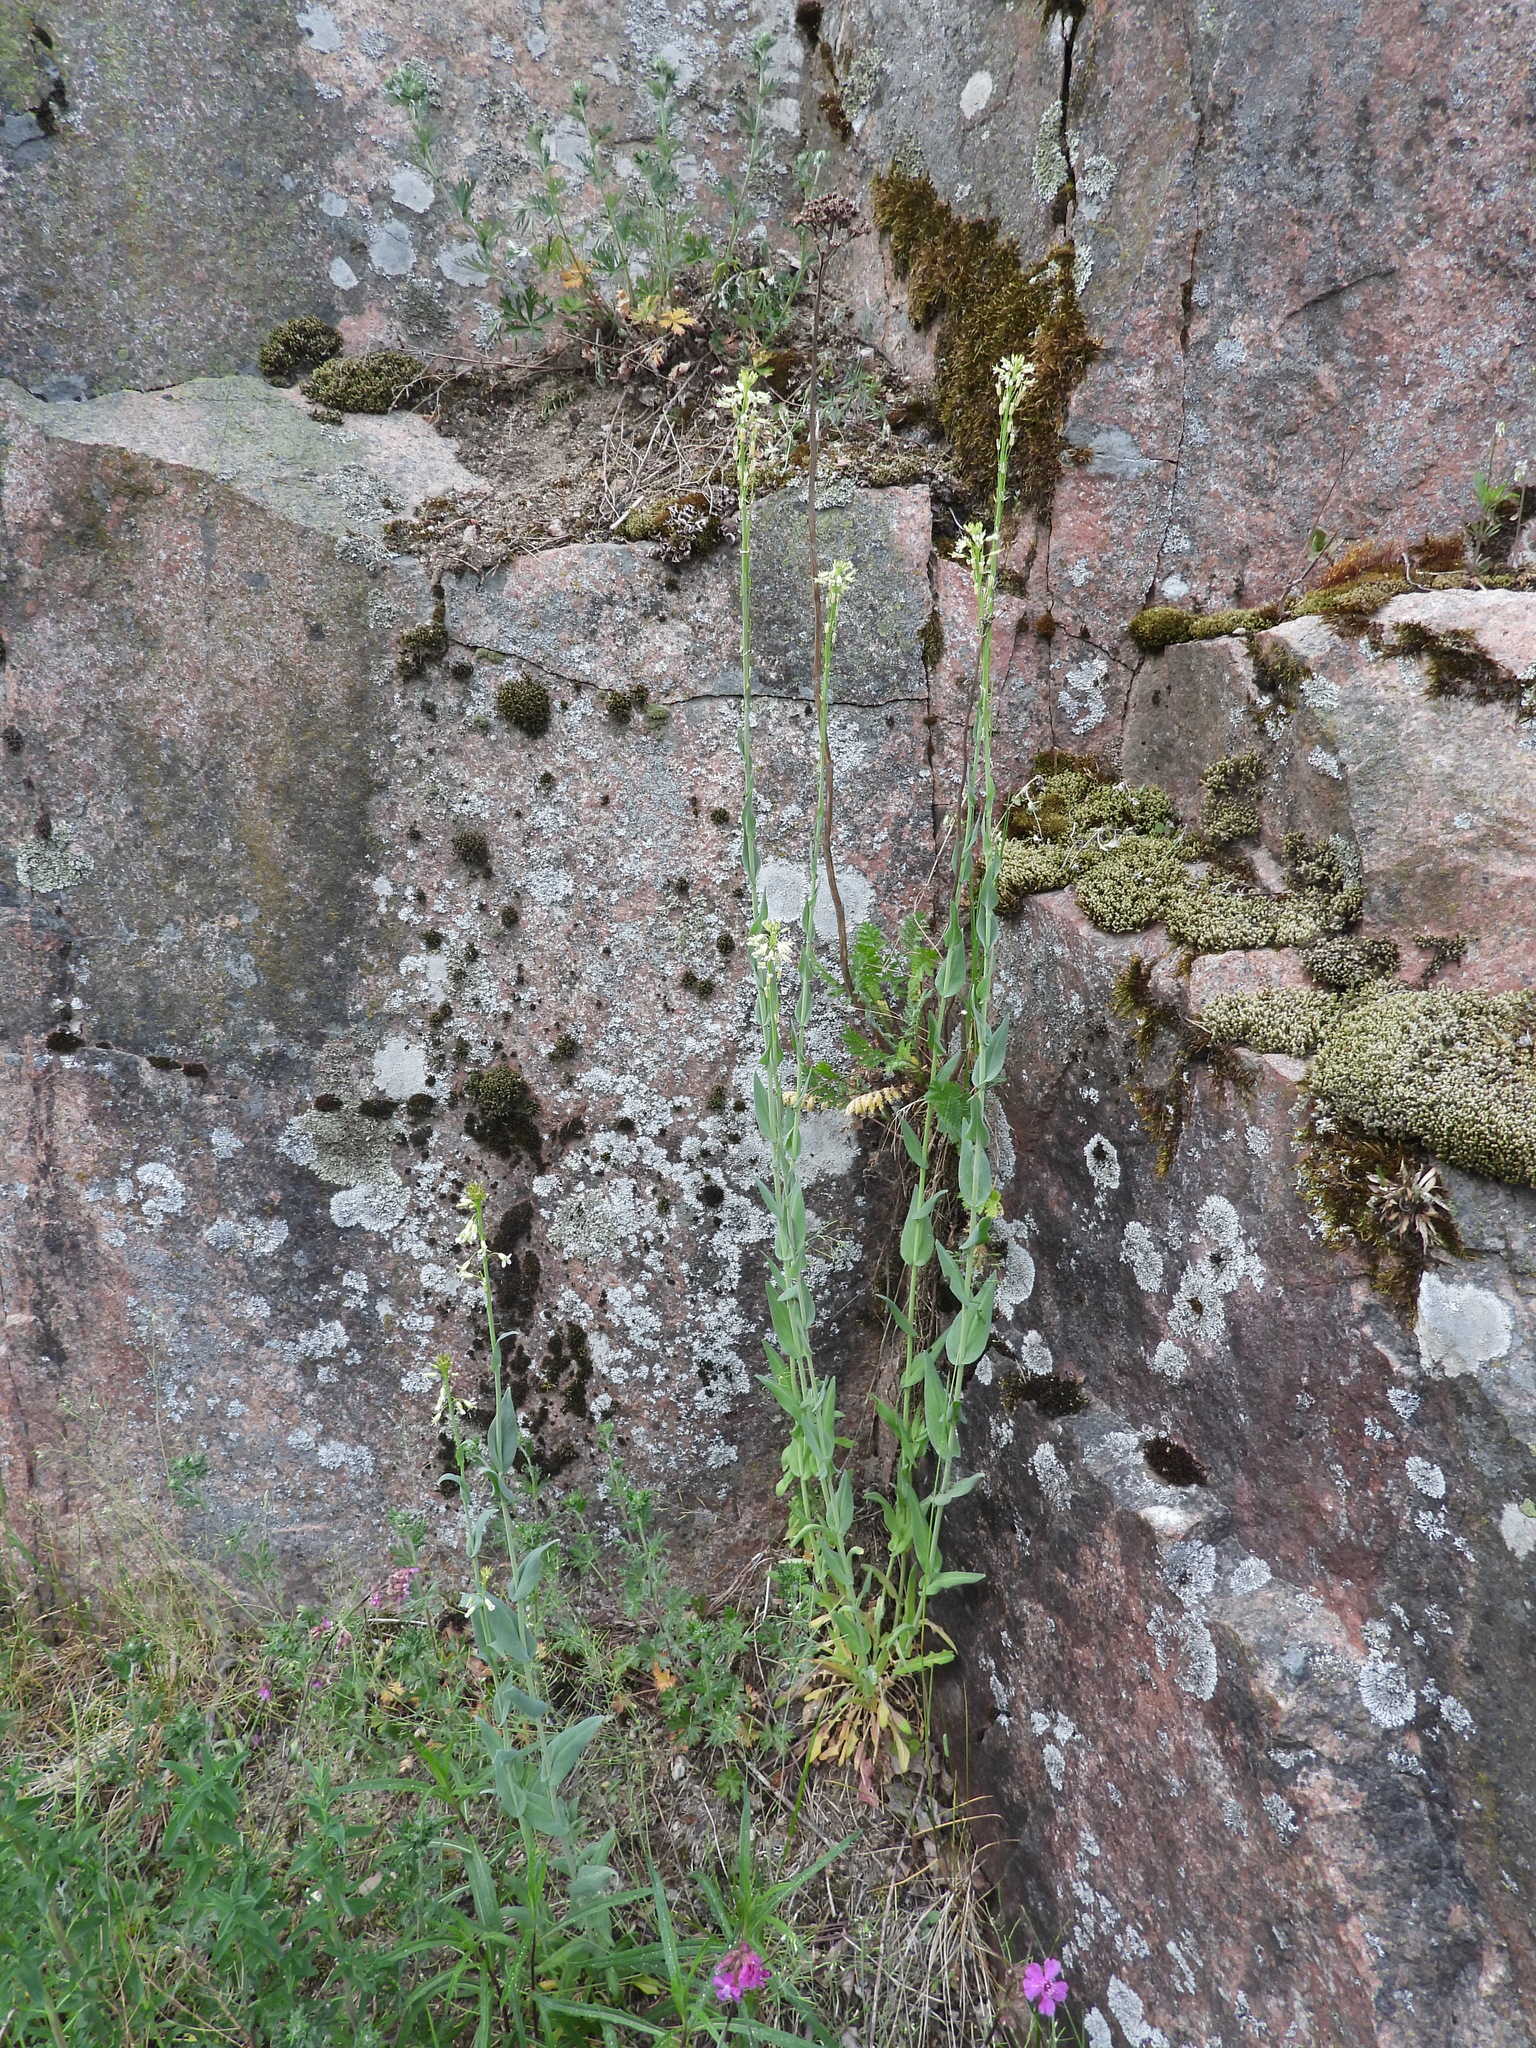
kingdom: Plantae
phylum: Tracheophyta
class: Magnoliopsida
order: Brassicales
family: Brassicaceae
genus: Turritis
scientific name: Turritis glabra
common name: Tower rockcress
